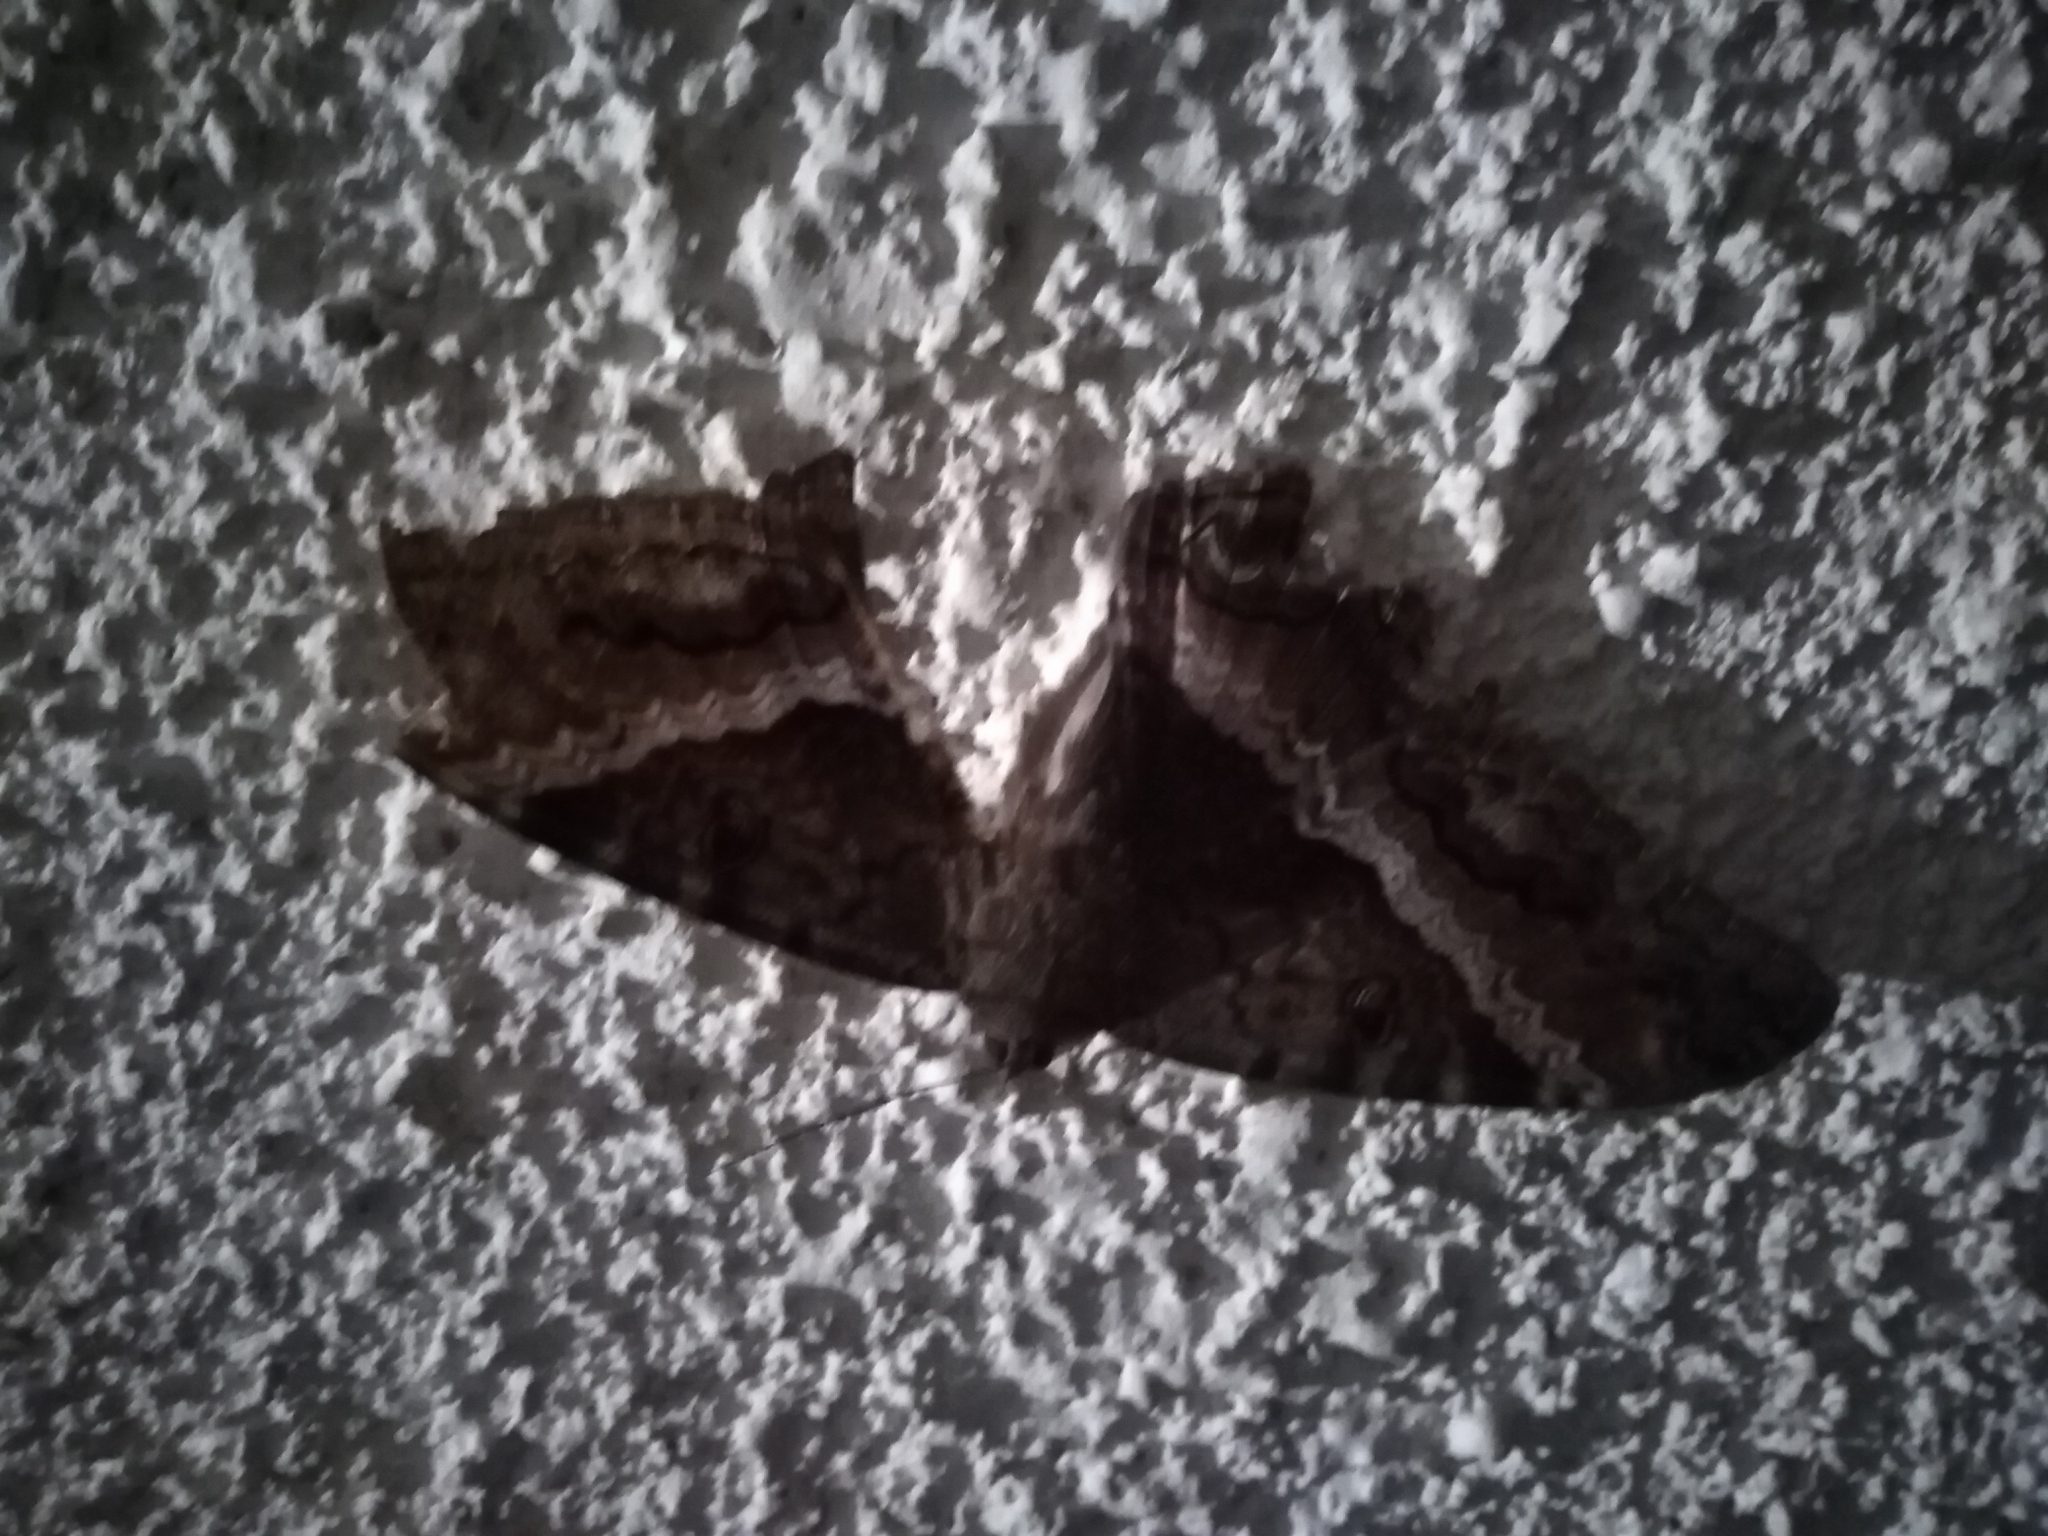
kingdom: Animalia
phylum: Arthropoda
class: Insecta
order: Lepidoptera
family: Erebidae
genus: Ascalapha
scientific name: Ascalapha odorata
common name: Black witch
